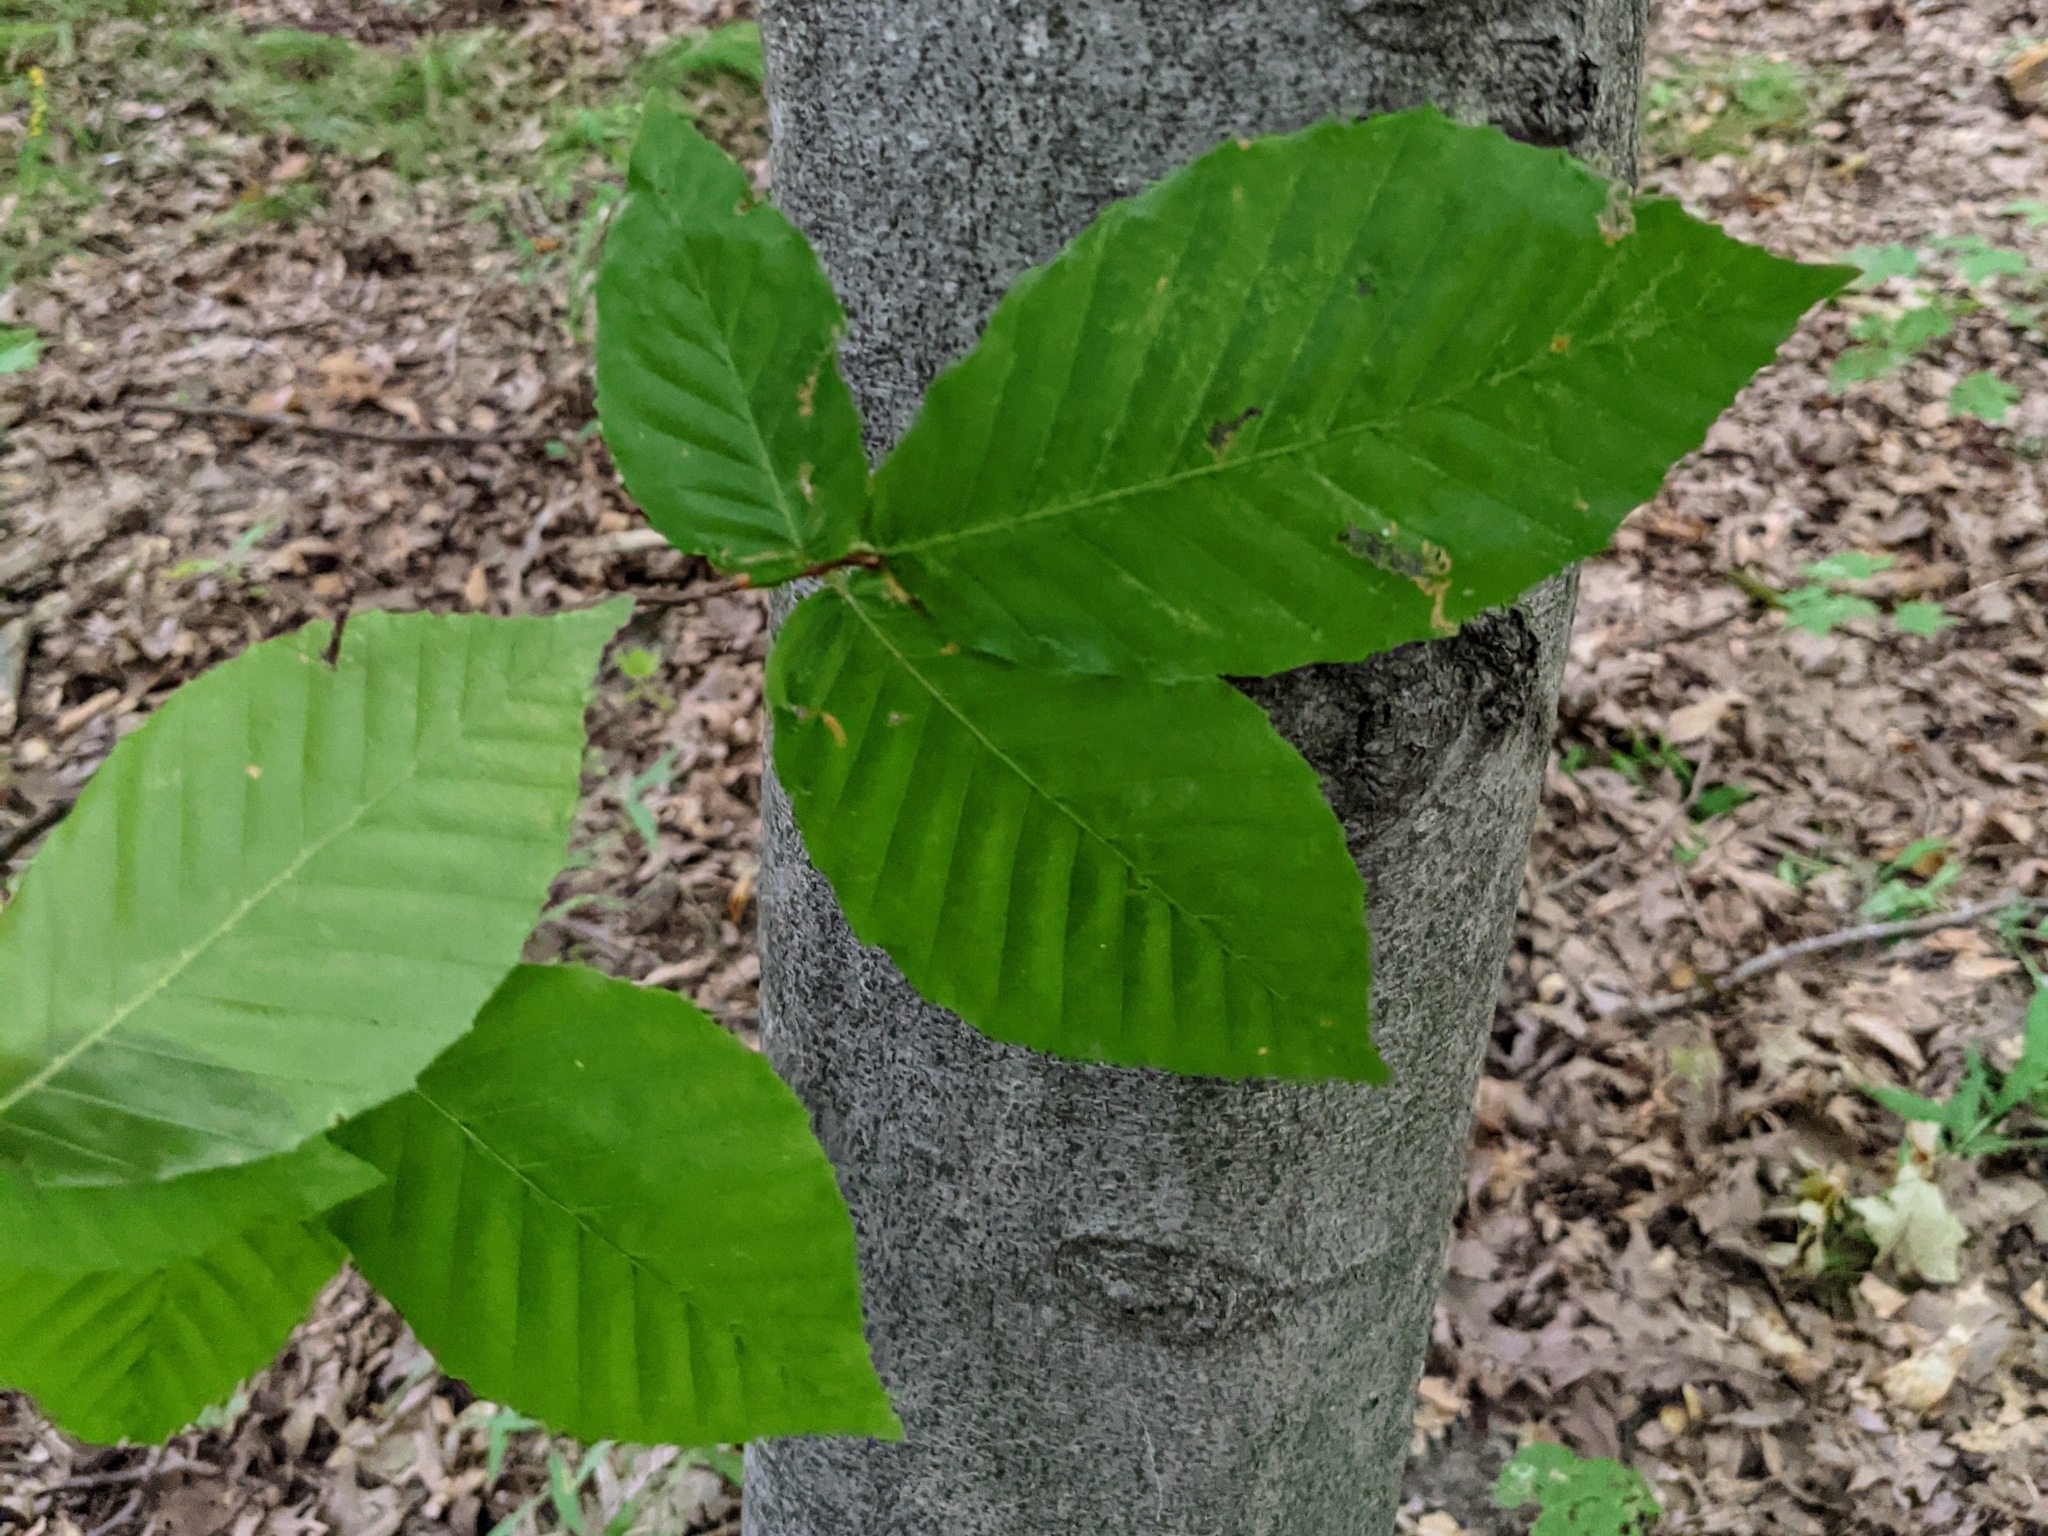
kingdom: Plantae
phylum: Tracheophyta
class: Magnoliopsida
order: Fagales
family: Fagaceae
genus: Fagus
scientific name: Fagus grandifolia
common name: American beech
